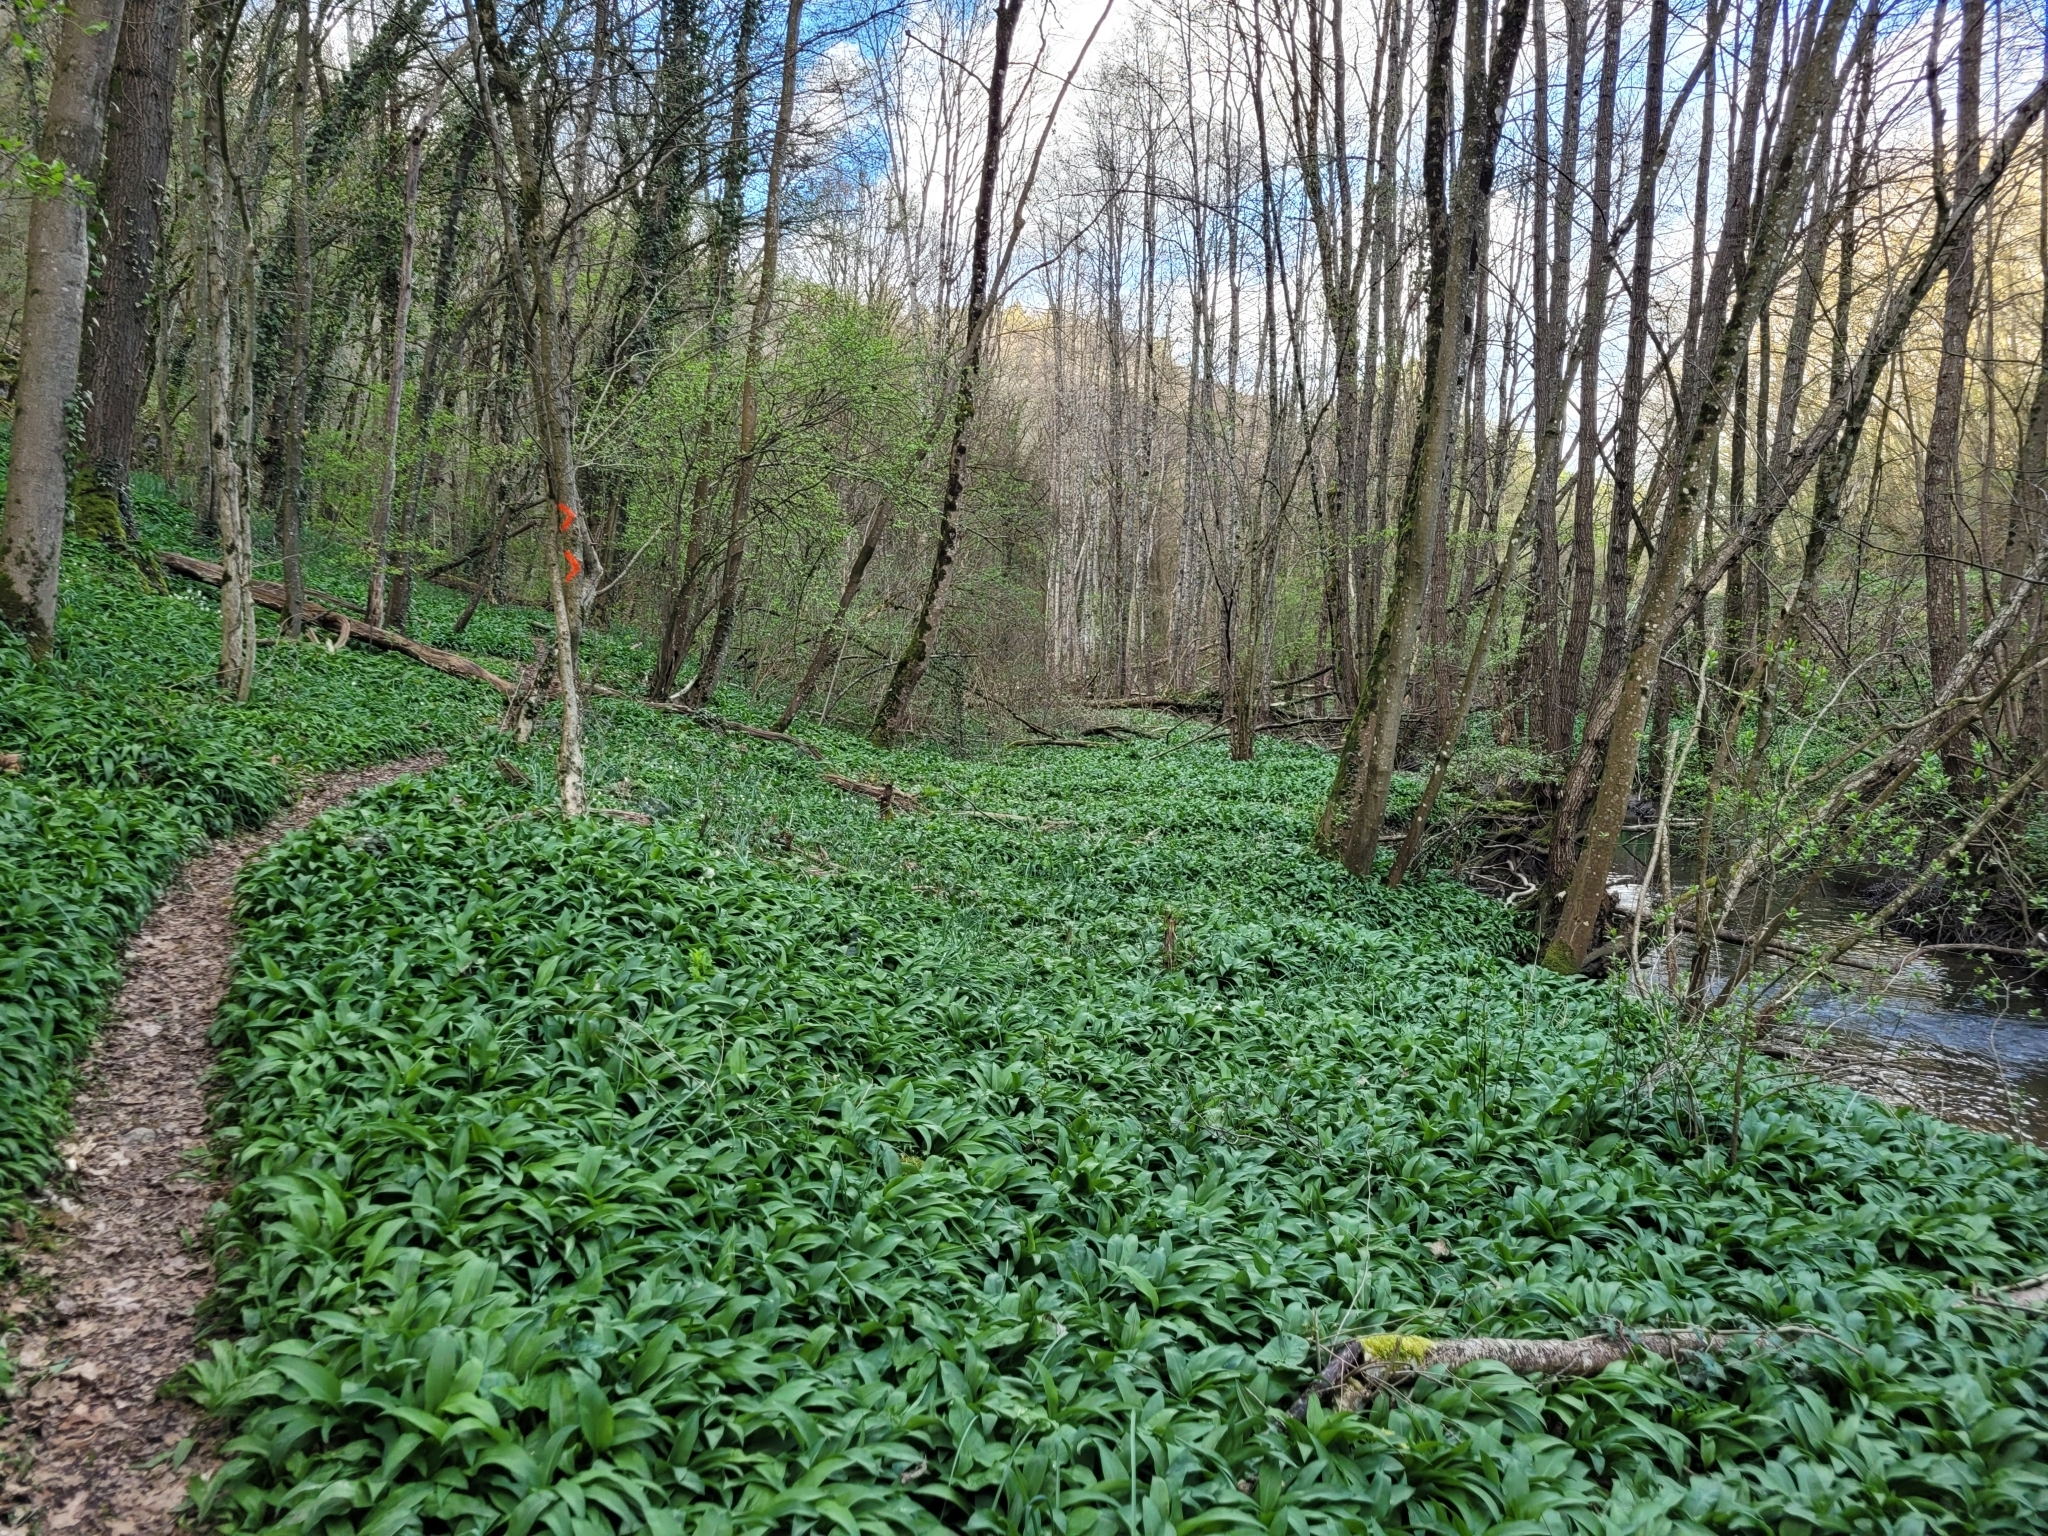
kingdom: Plantae
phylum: Tracheophyta
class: Liliopsida
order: Asparagales
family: Amaryllidaceae
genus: Allium
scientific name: Allium ursinum
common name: Ramsons
